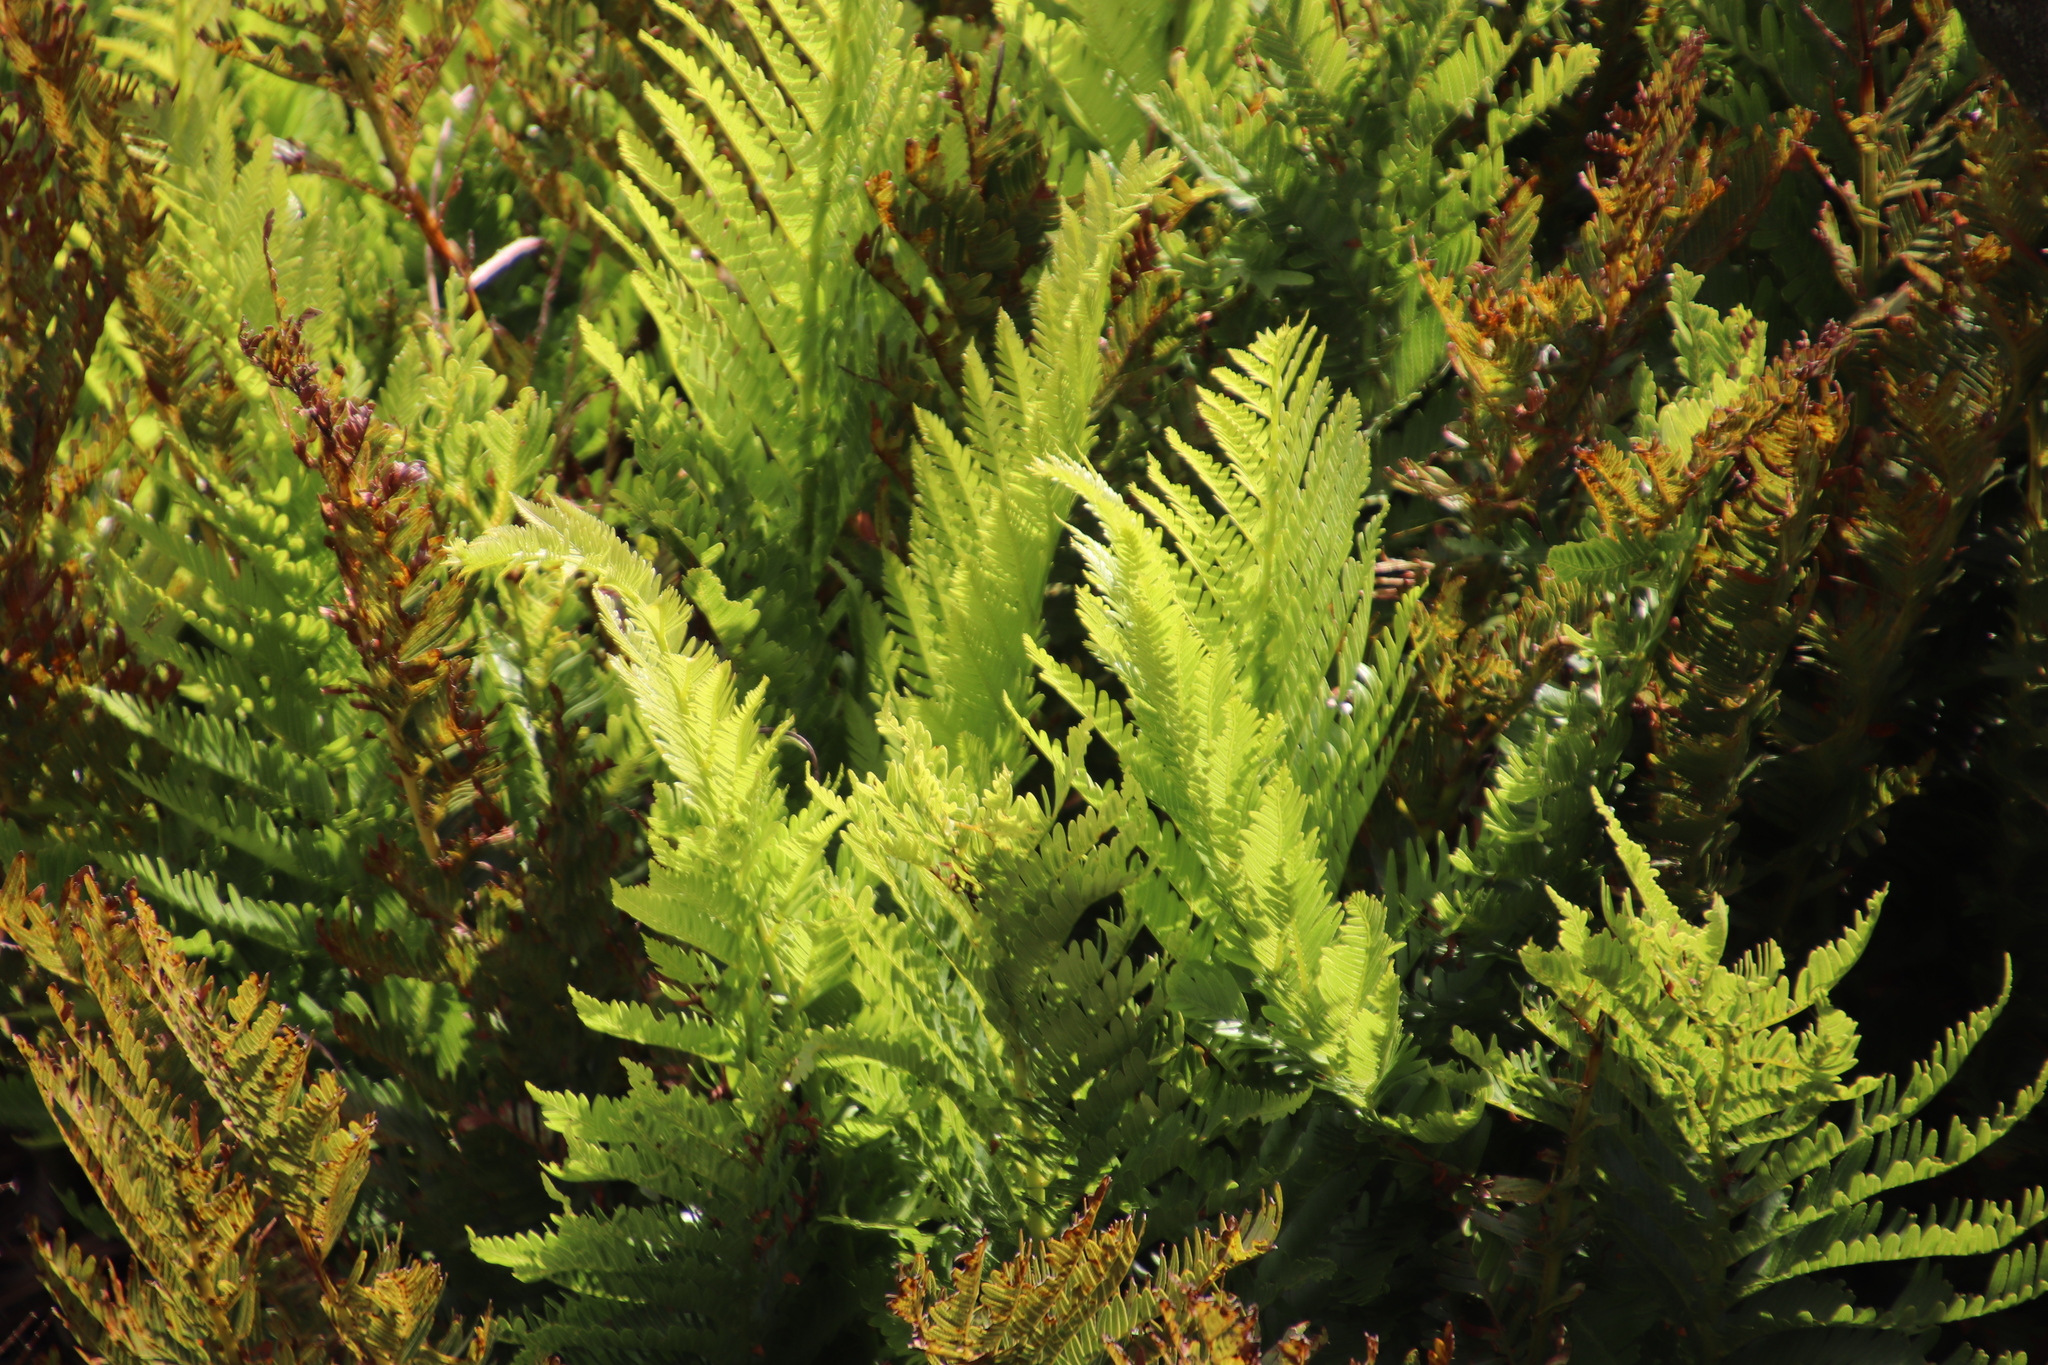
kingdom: Plantae
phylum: Tracheophyta
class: Polypodiopsida
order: Osmundales
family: Osmundaceae
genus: Todea
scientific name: Todea barbara
